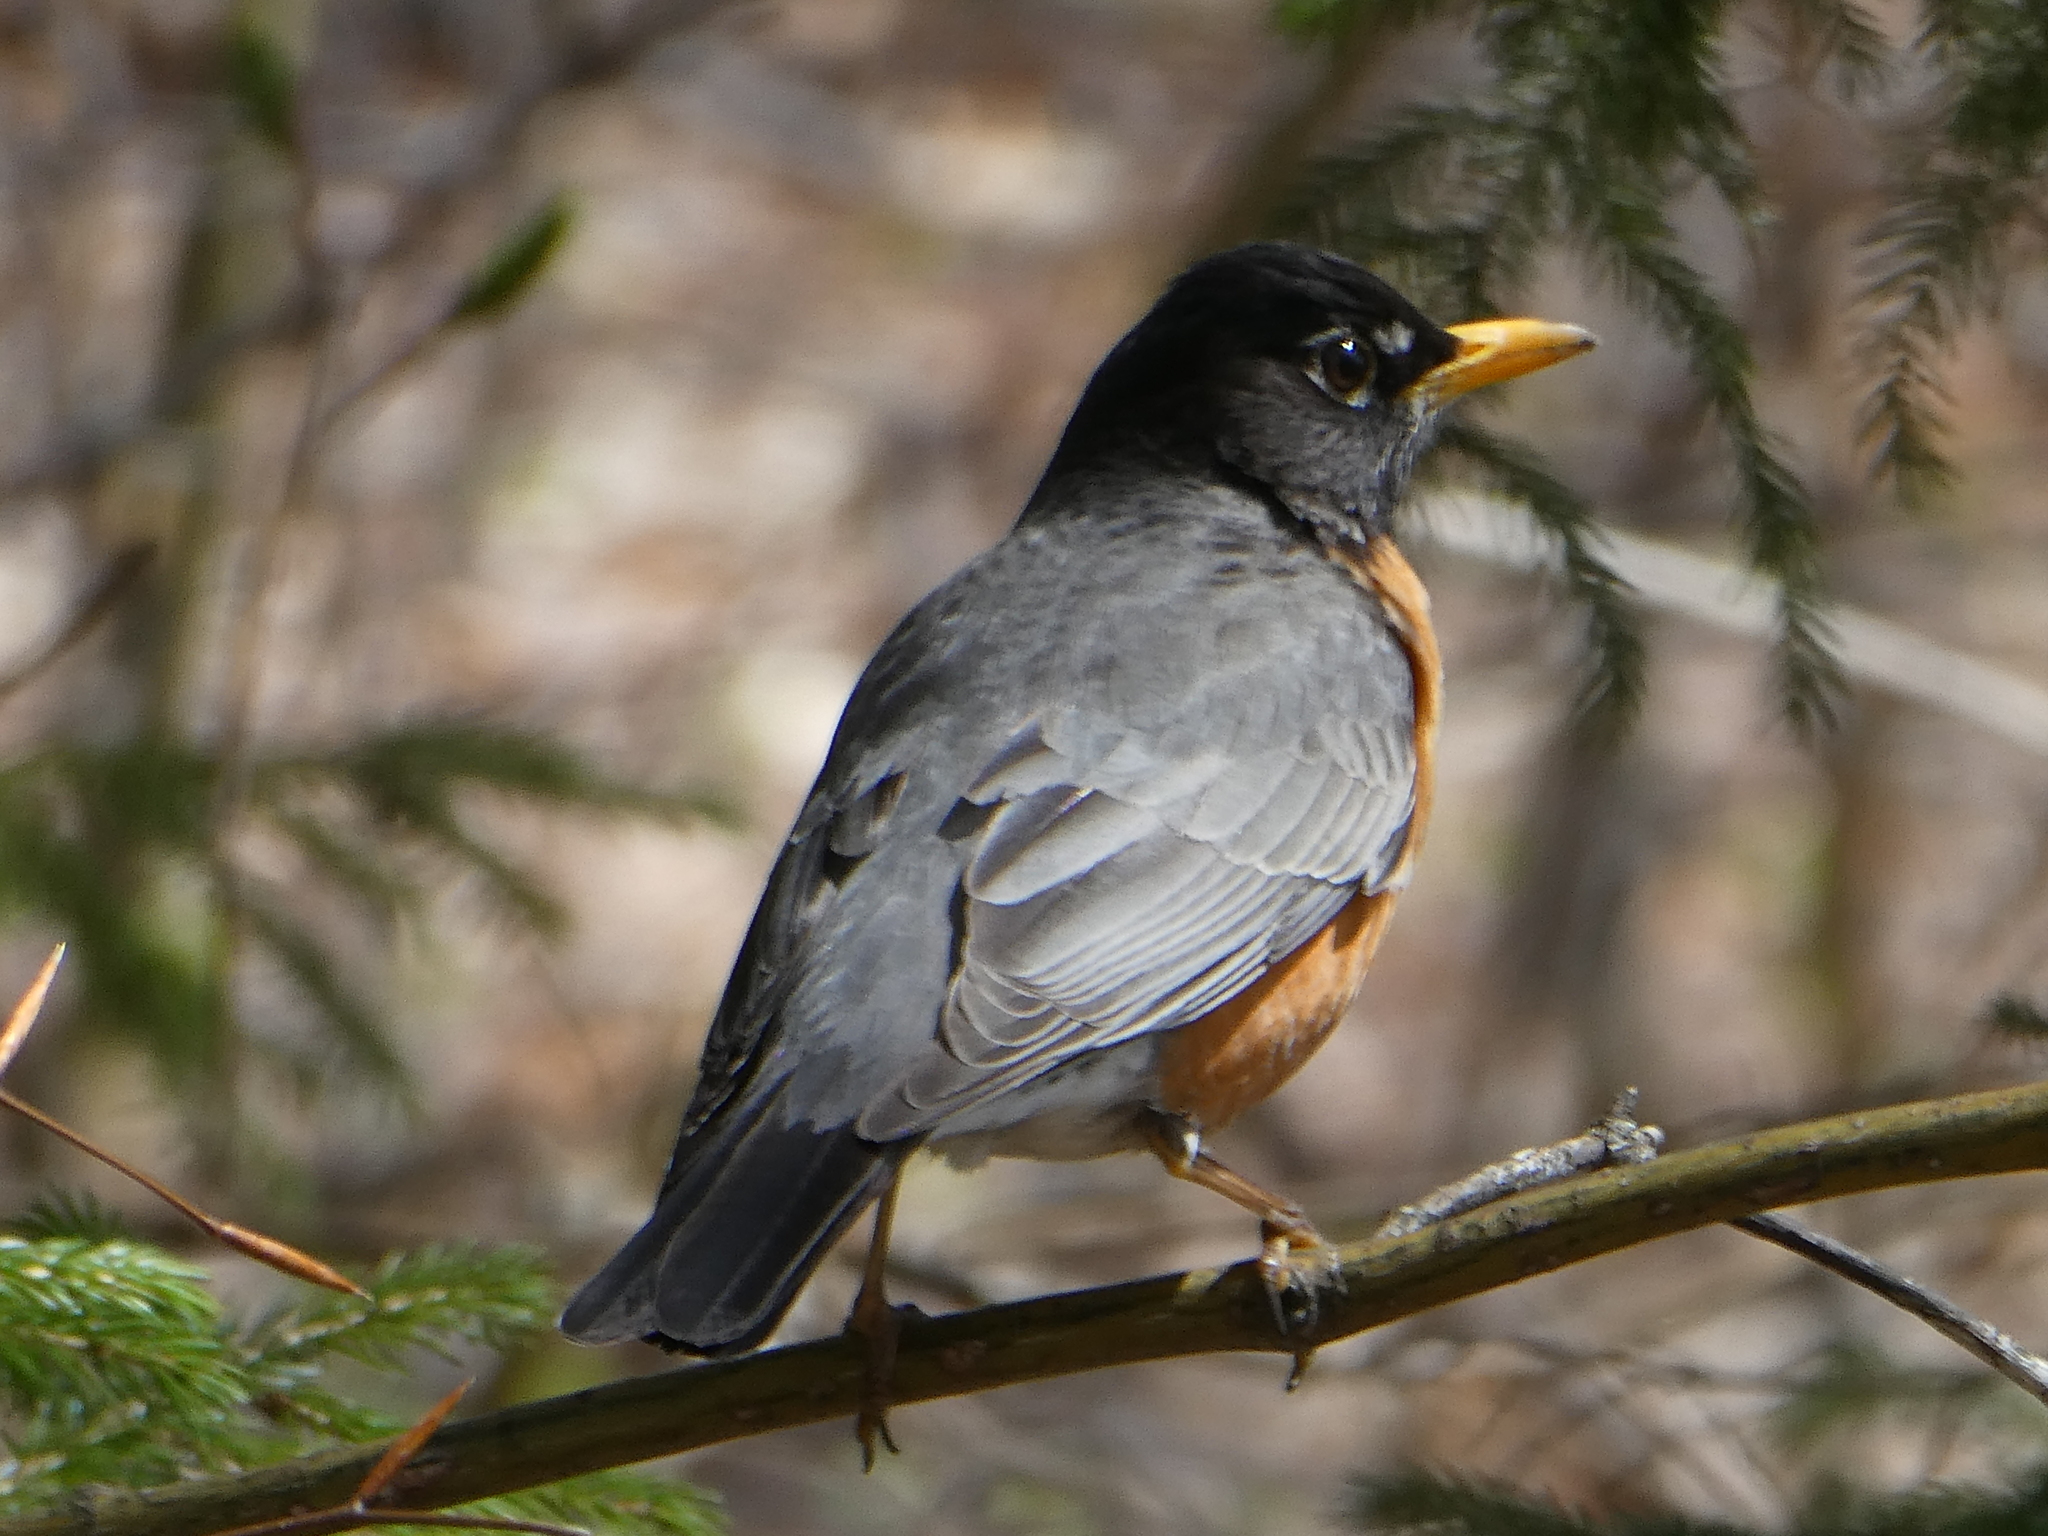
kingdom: Animalia
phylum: Chordata
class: Aves
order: Passeriformes
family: Turdidae
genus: Turdus
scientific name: Turdus migratorius
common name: American robin
